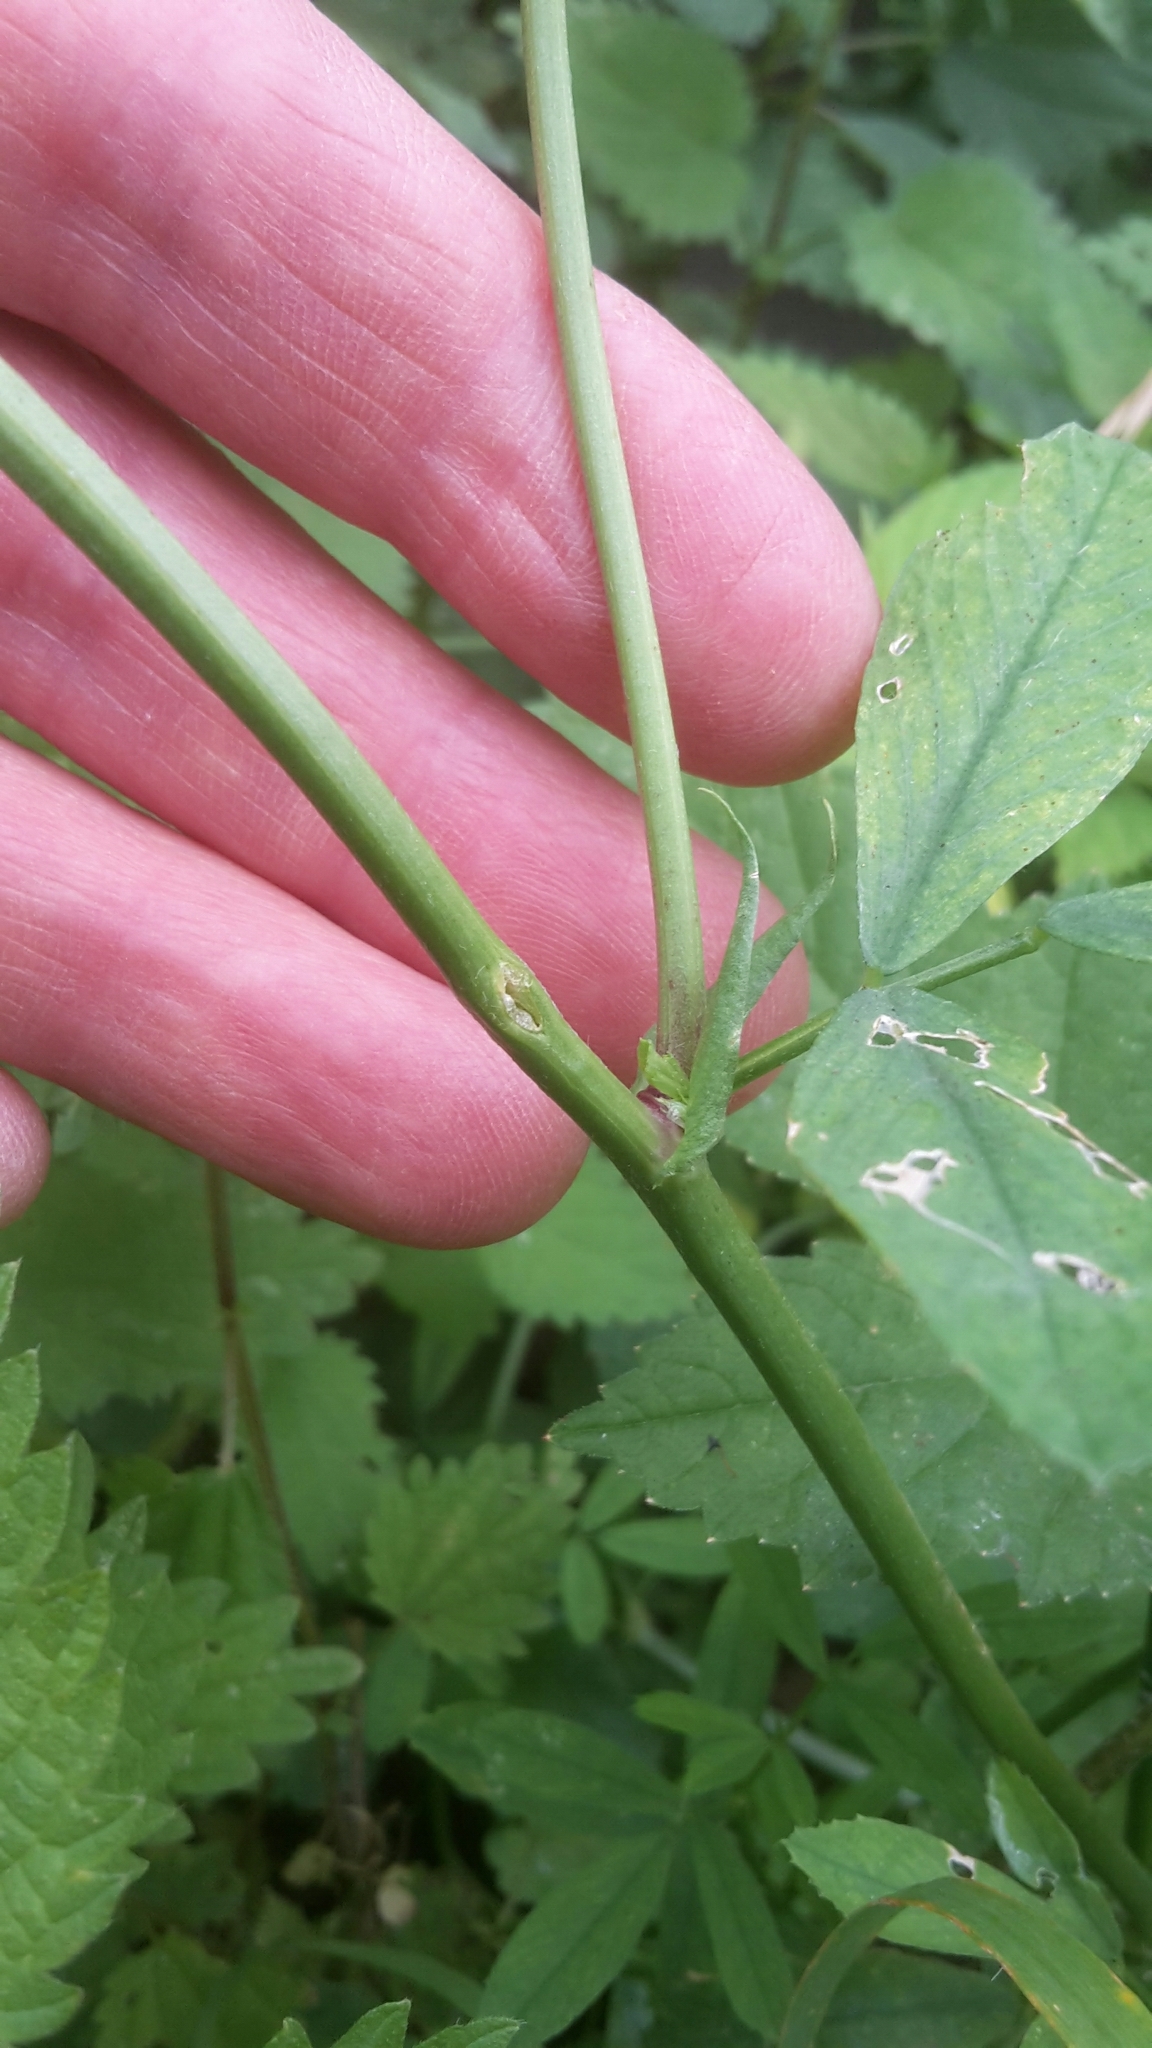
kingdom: Plantae
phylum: Tracheophyta
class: Magnoliopsida
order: Fabales
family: Fabaceae
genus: Medicago
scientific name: Medicago sativa
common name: Alfalfa
